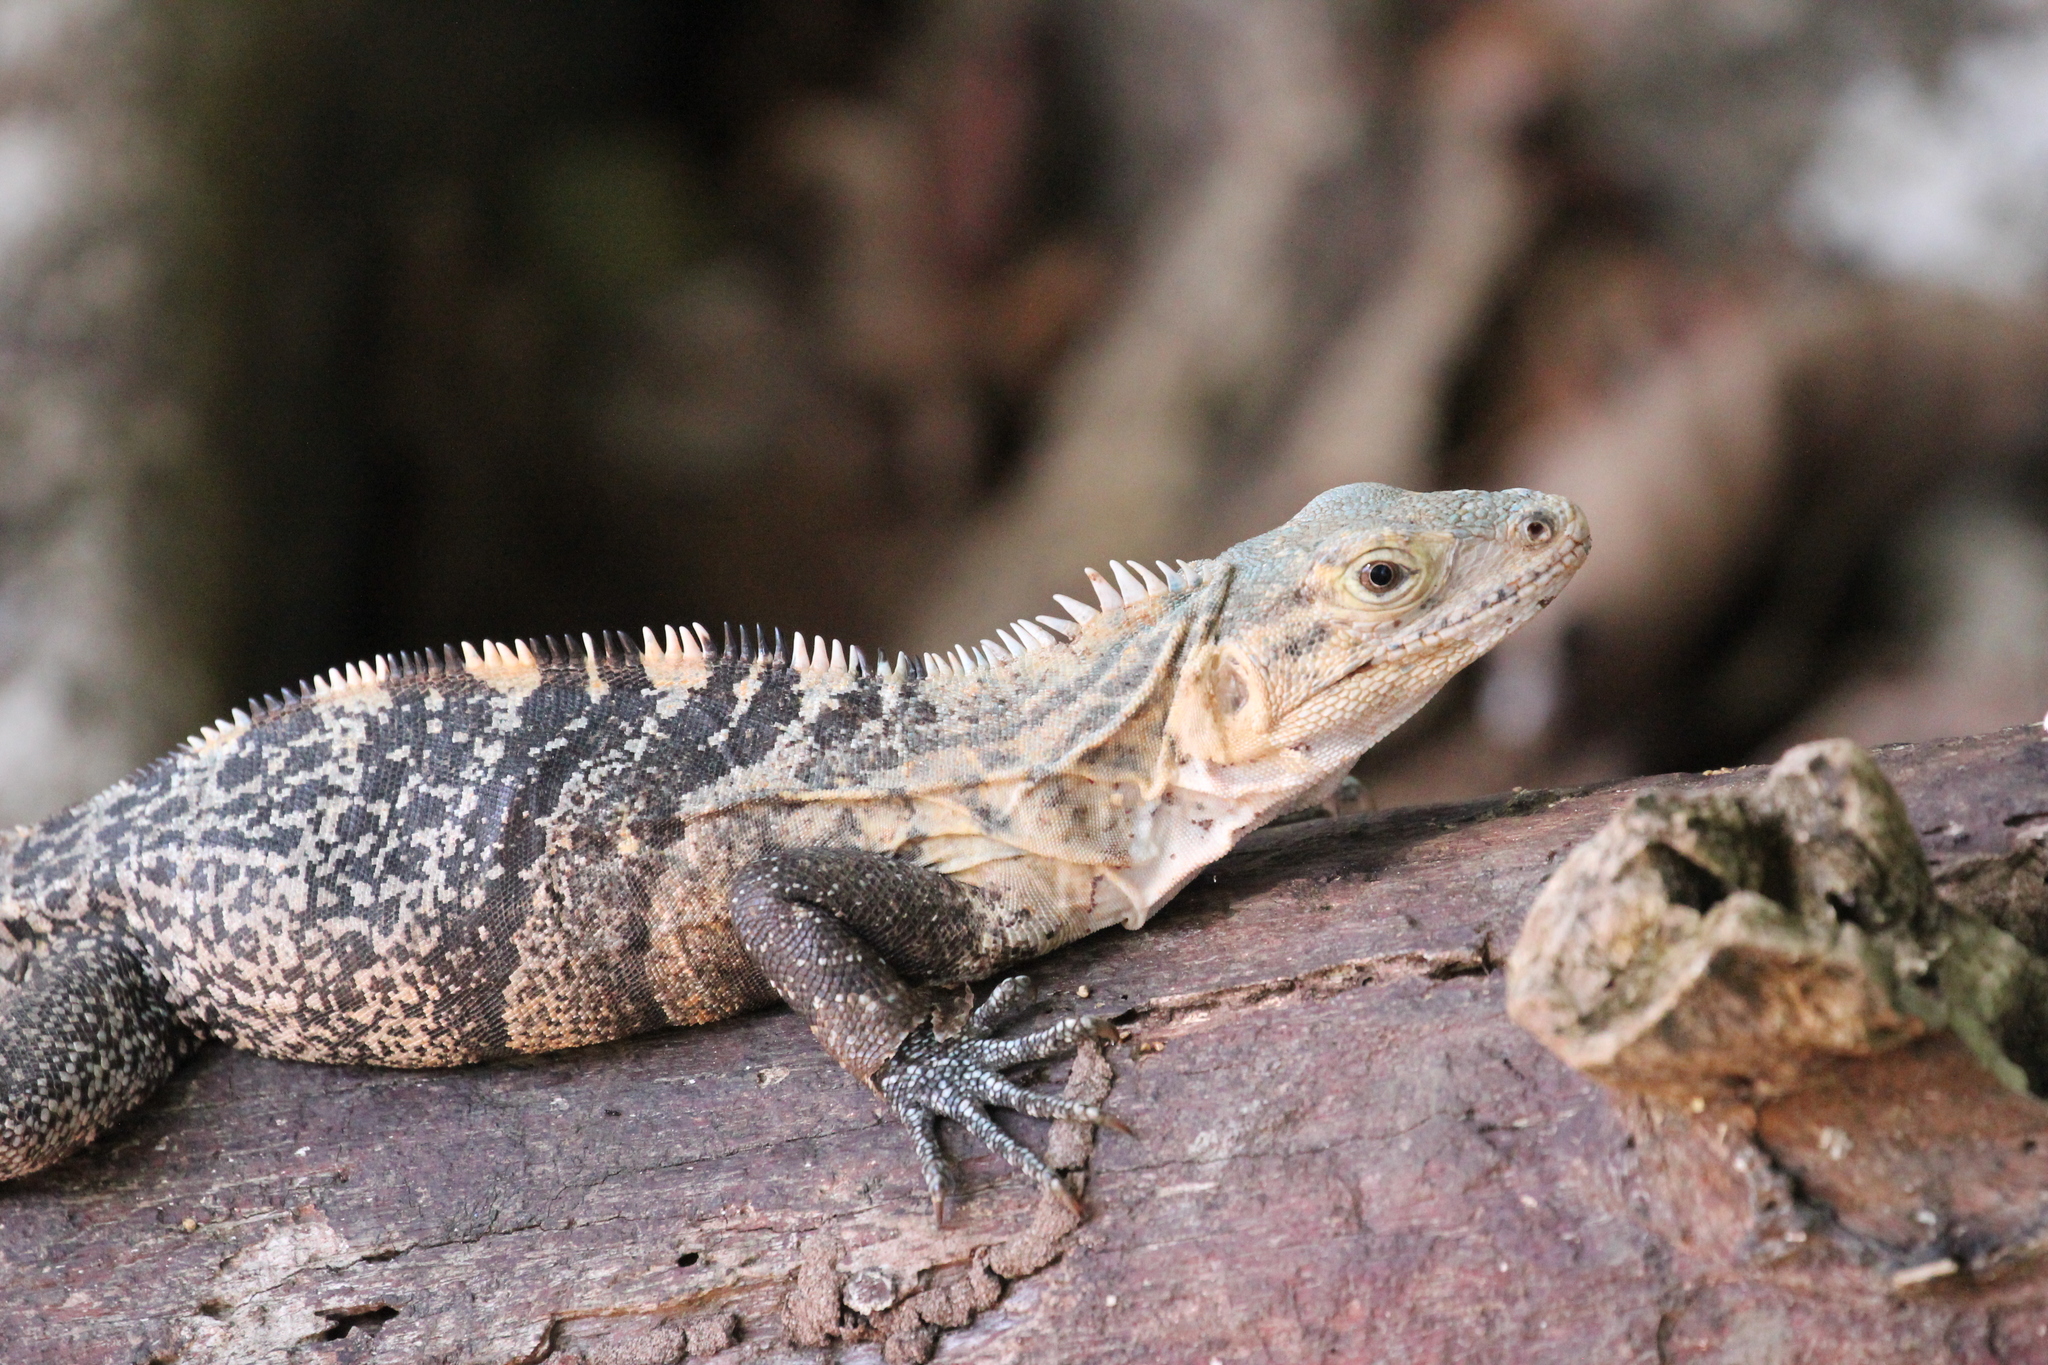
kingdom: Animalia
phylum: Chordata
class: Squamata
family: Iguanidae
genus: Ctenosaura
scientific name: Ctenosaura similis
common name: Black spiny-tailed iguana
